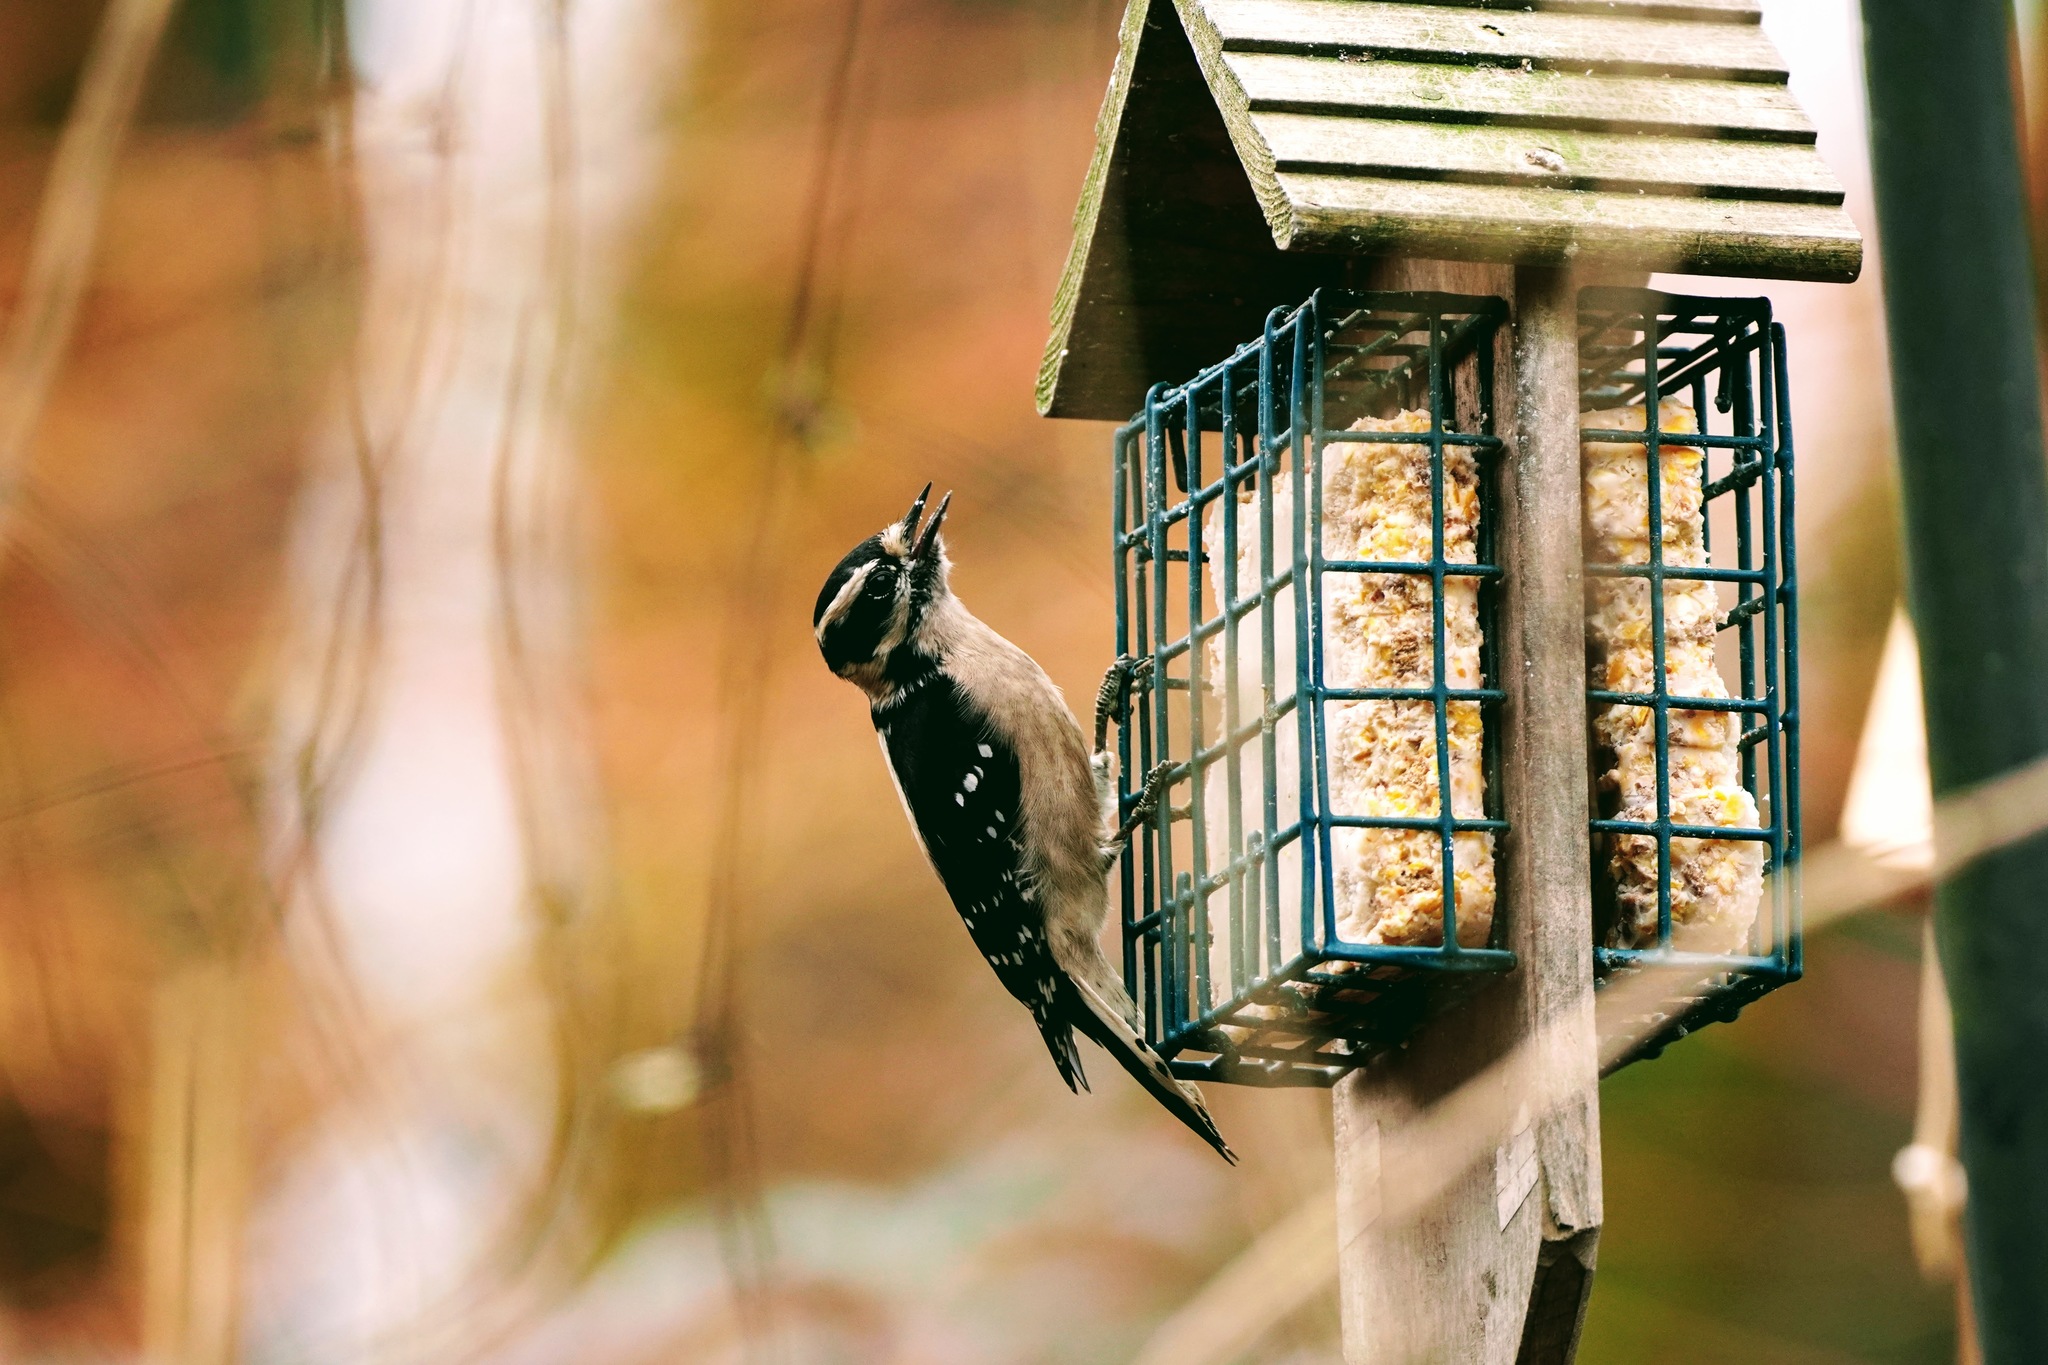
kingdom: Animalia
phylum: Chordata
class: Aves
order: Piciformes
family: Picidae
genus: Dryobates
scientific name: Dryobates pubescens
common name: Downy woodpecker
